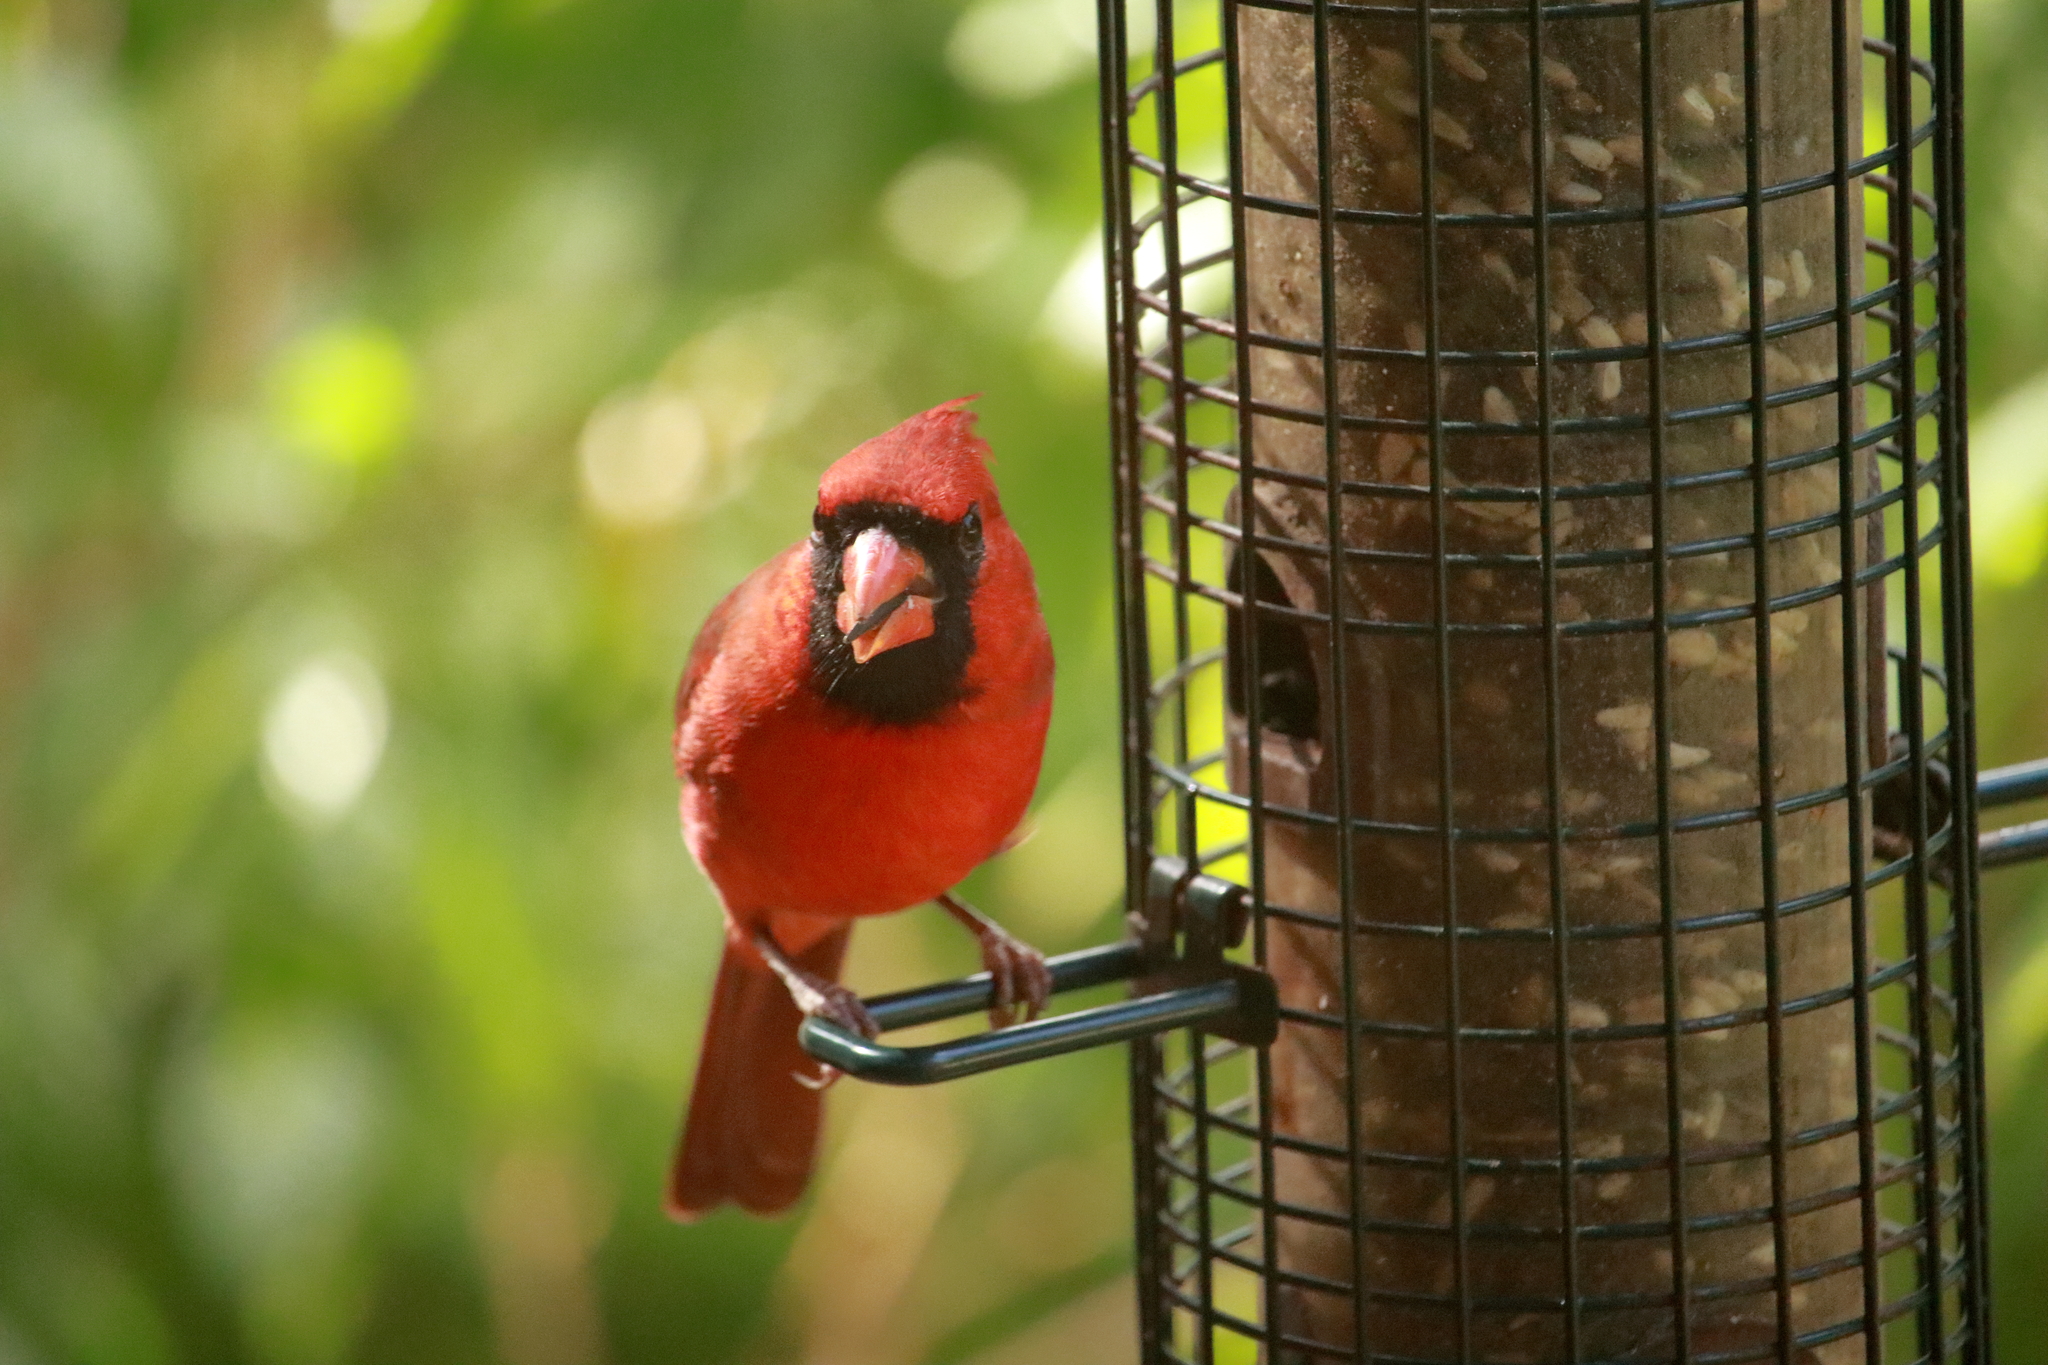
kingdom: Animalia
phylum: Chordata
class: Aves
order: Passeriformes
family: Cardinalidae
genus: Cardinalis
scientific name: Cardinalis cardinalis
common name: Northern cardinal
